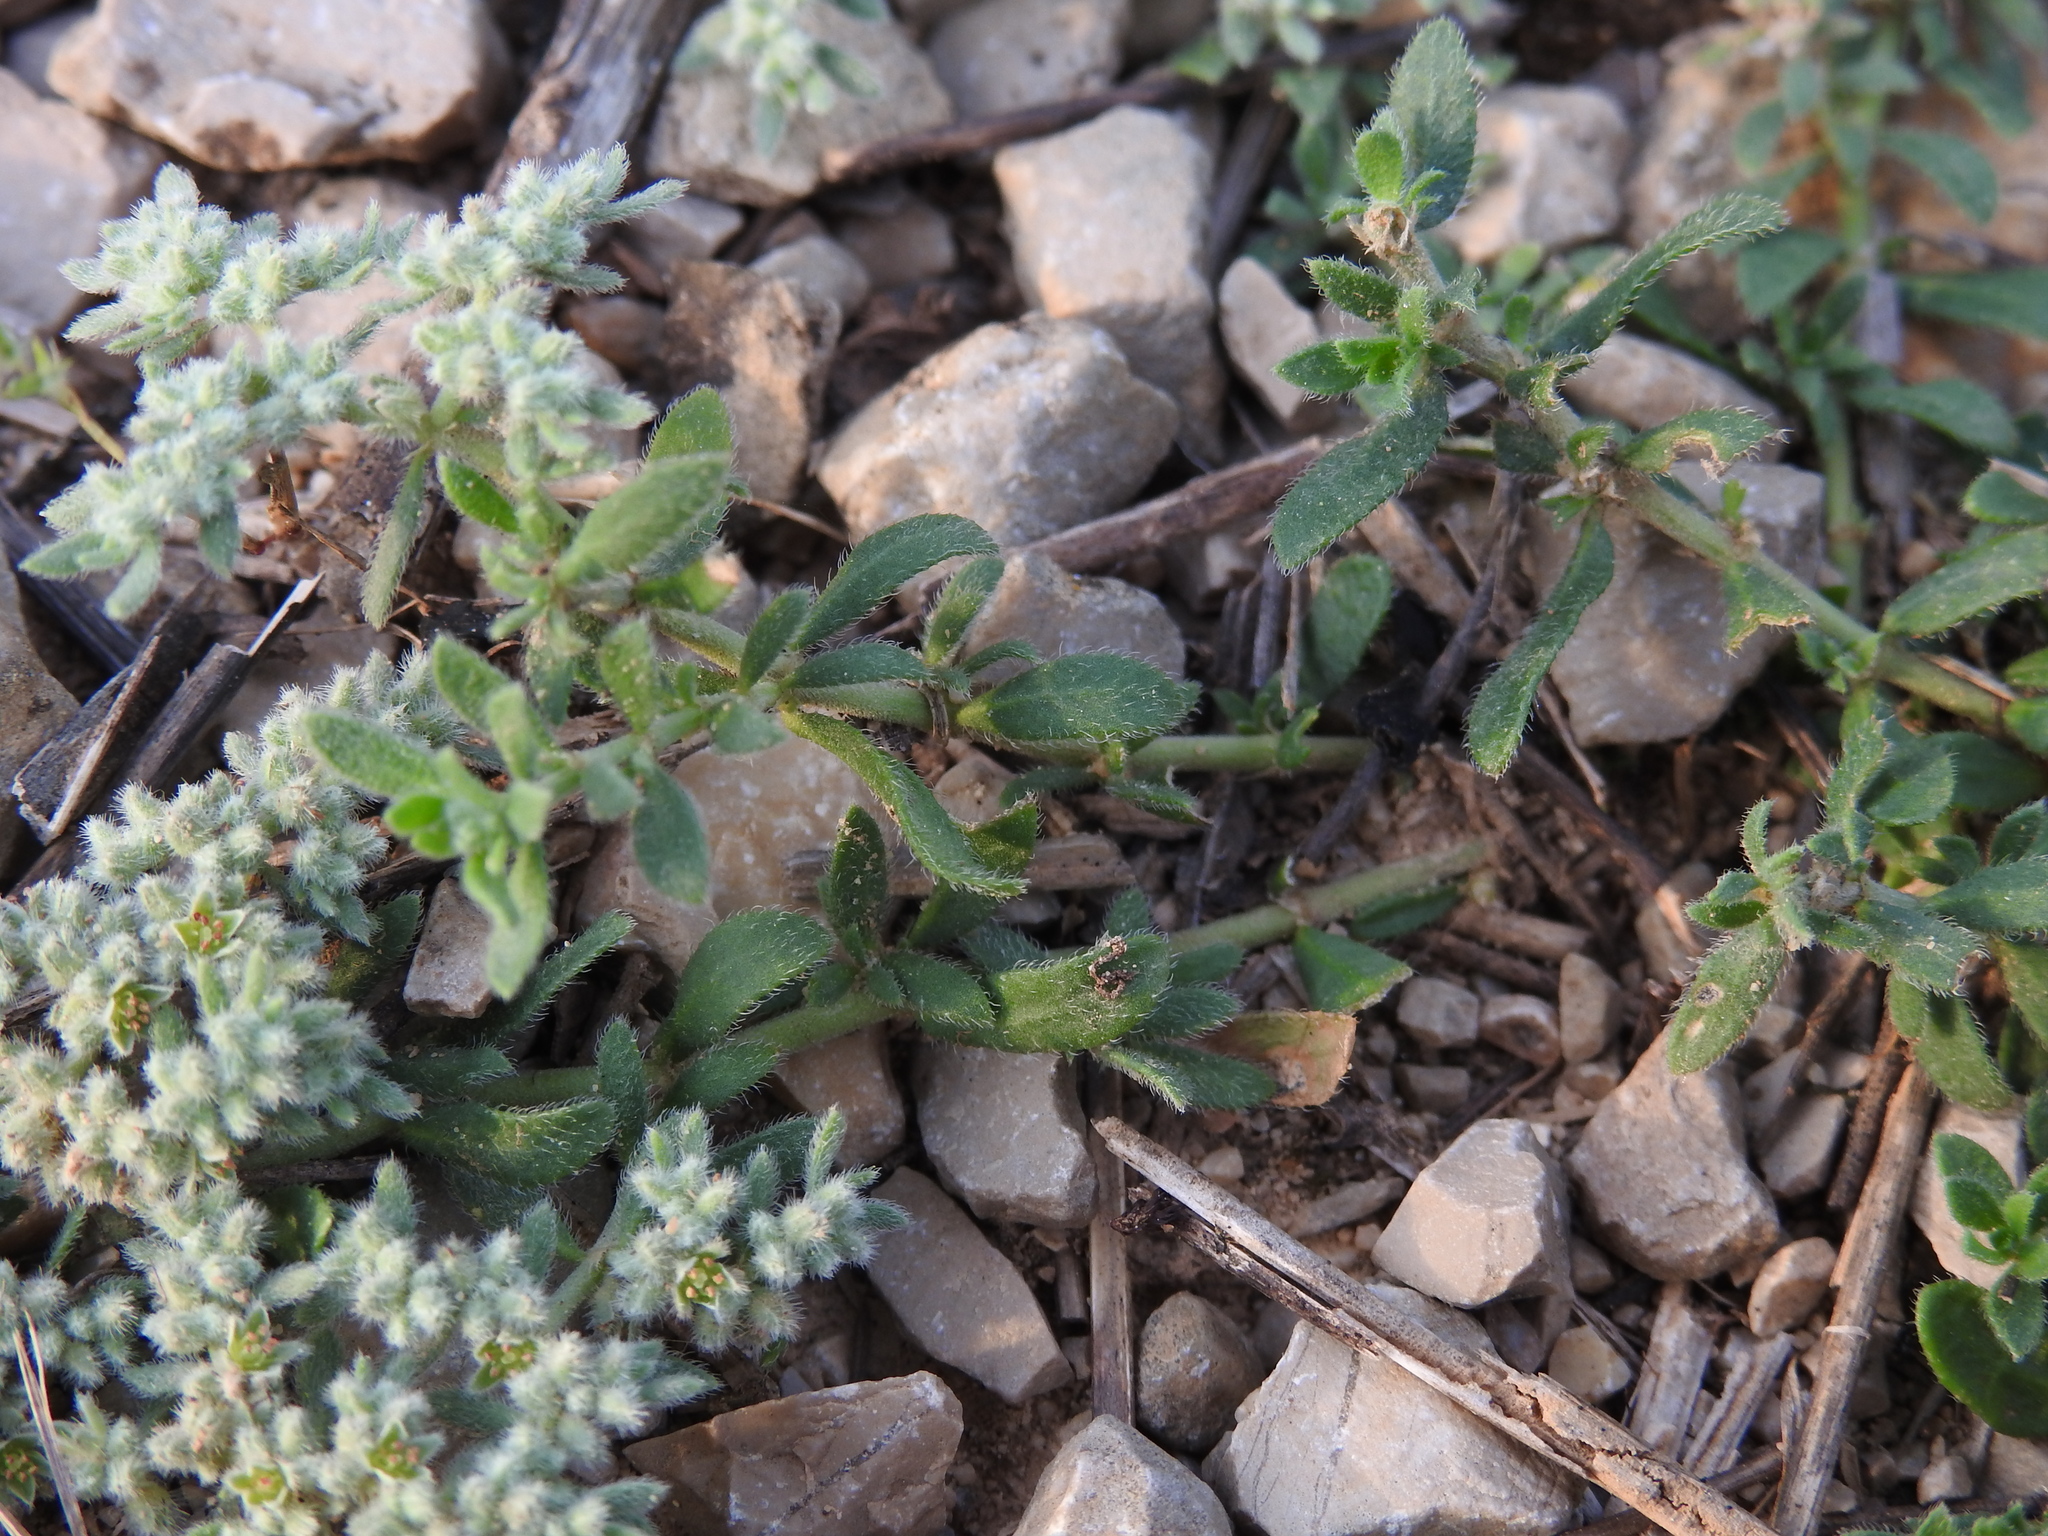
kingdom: Plantae
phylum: Tracheophyta
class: Magnoliopsida
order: Caryophyllales
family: Caryophyllaceae
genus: Herniaria
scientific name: Herniaria hirsuta
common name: Hairy rupturewort
